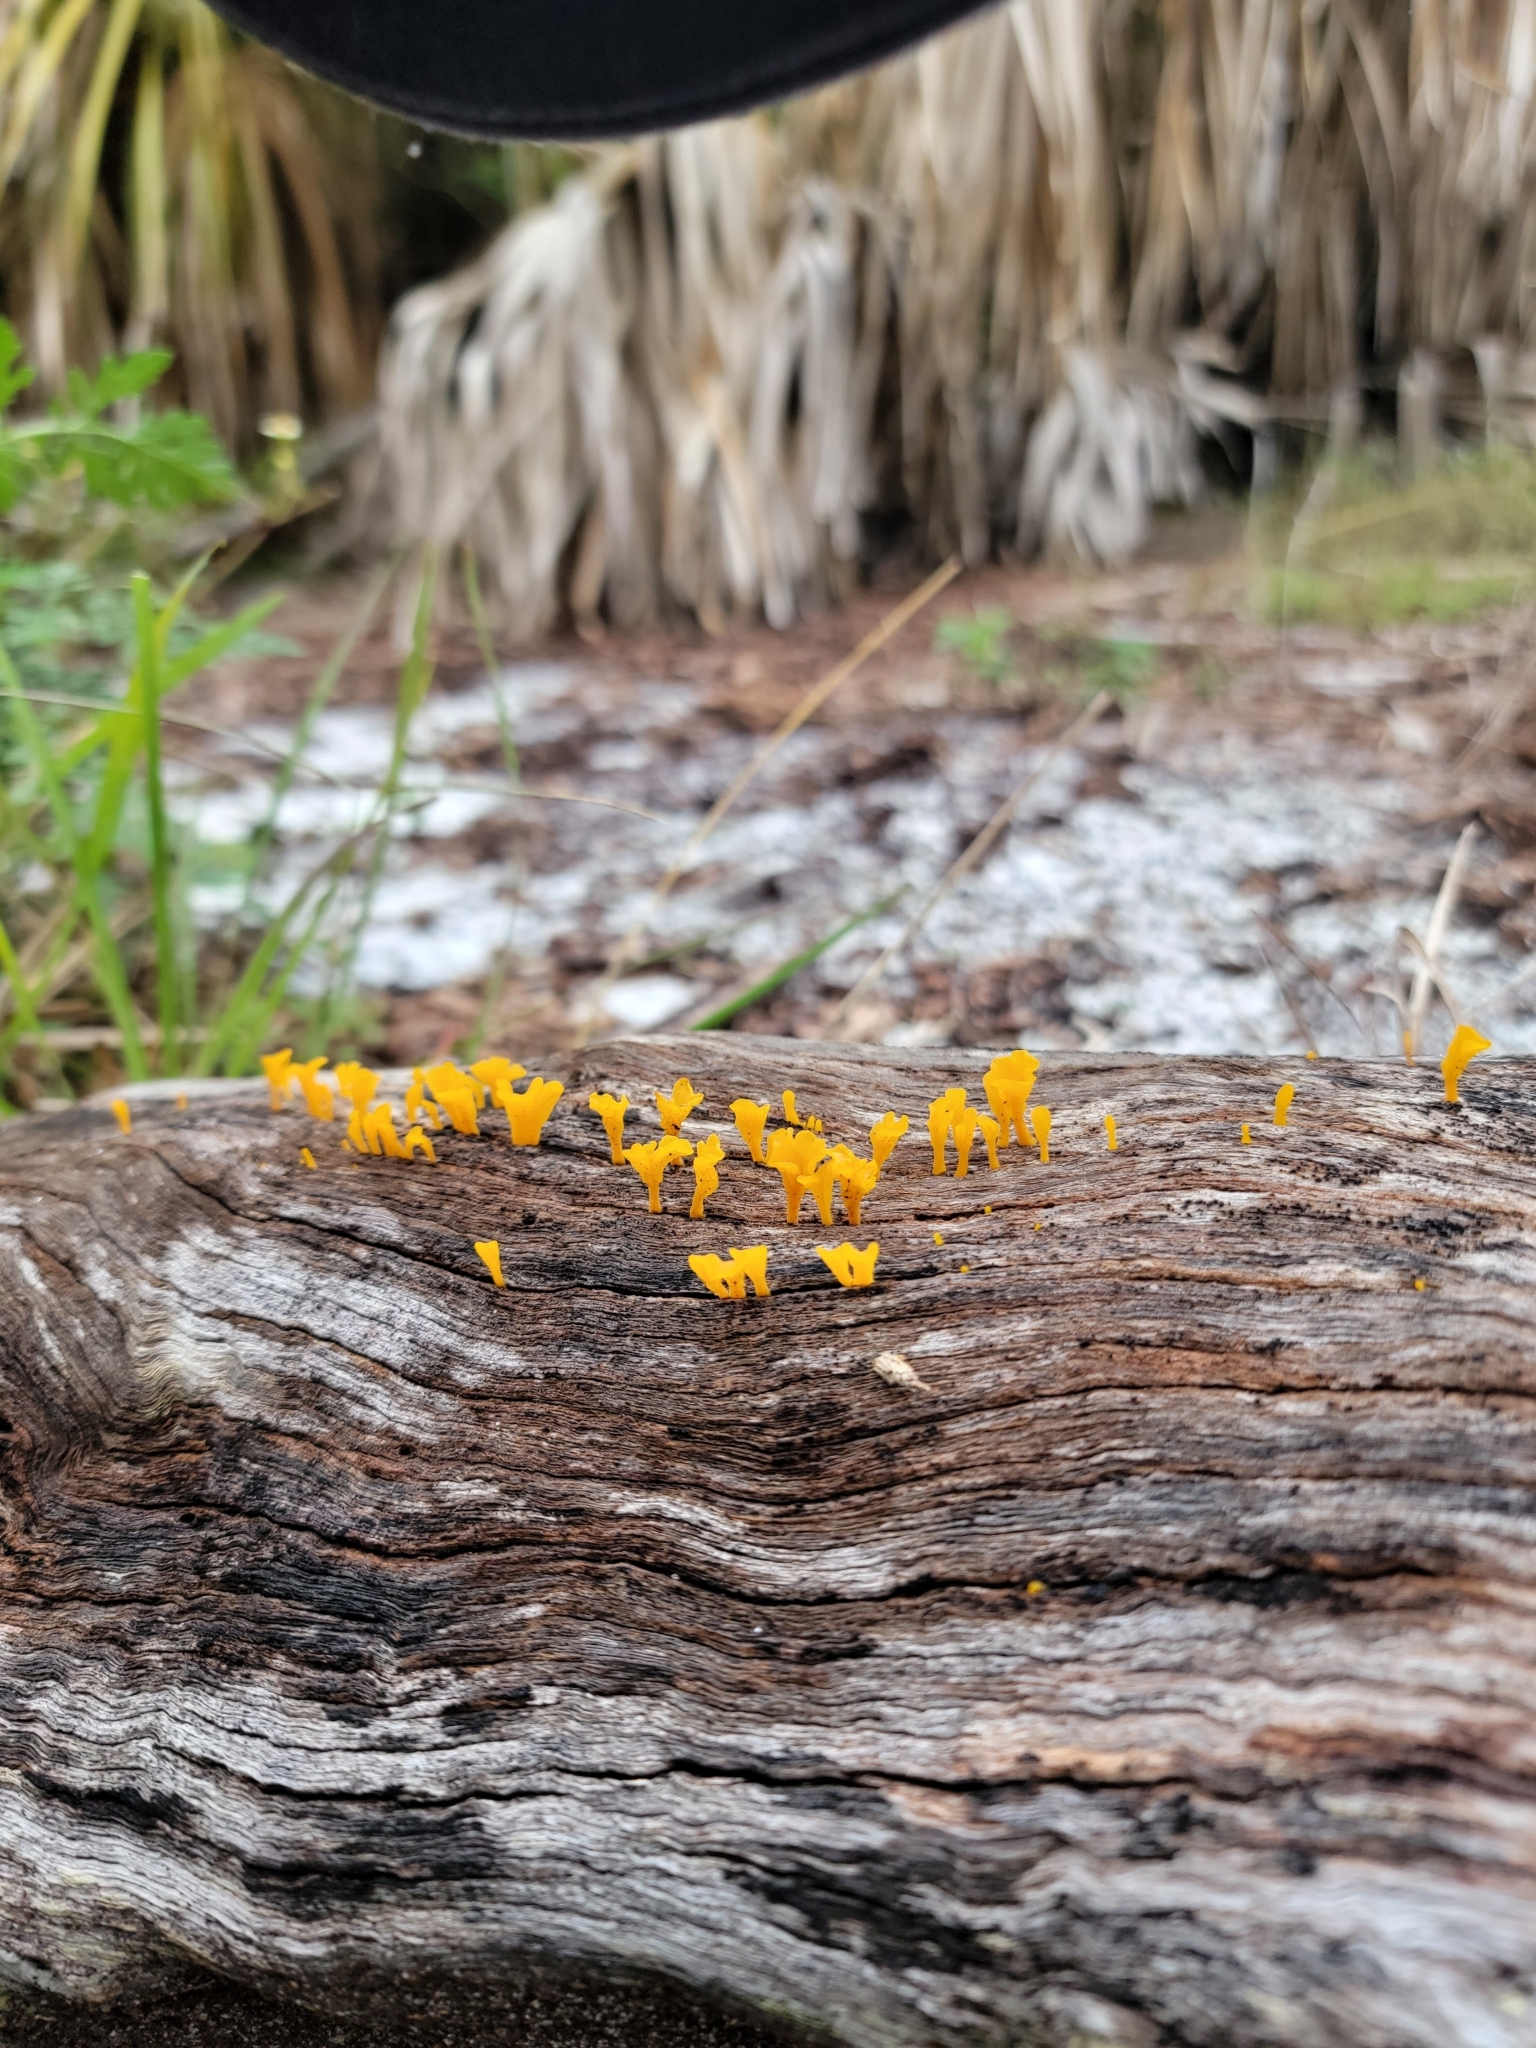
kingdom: Fungi
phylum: Basidiomycota
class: Dacrymycetes
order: Dacrymycetales
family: Dacrymycetaceae
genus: Dacrymyces
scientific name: Dacrymyces spathularius
